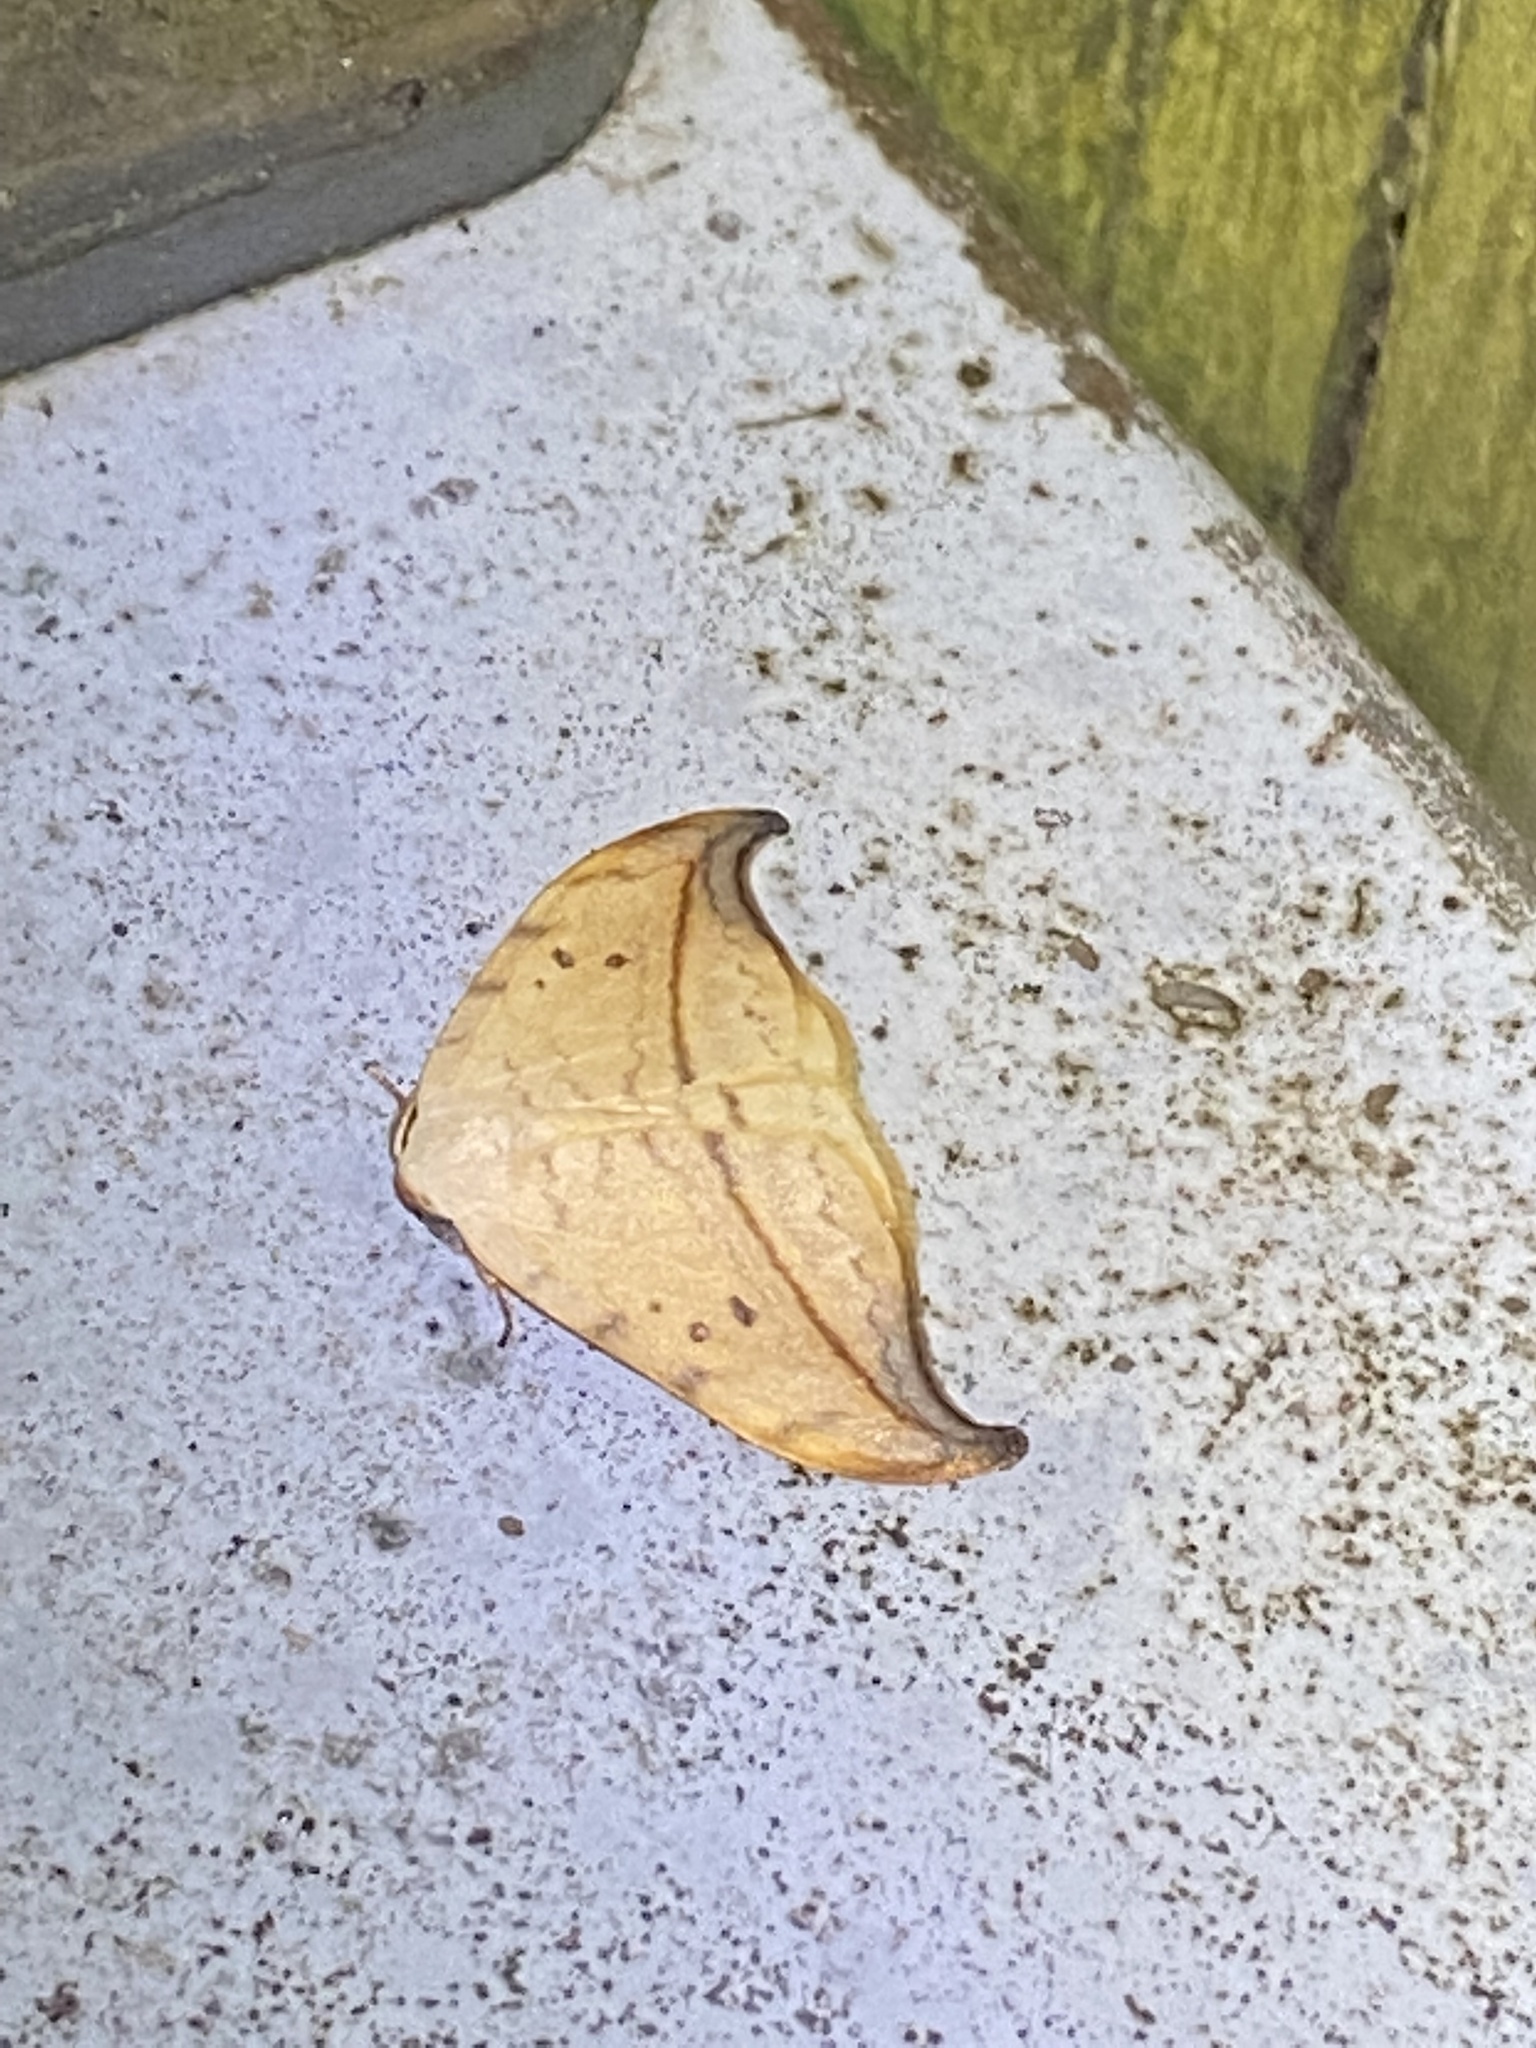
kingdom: Animalia
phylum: Arthropoda
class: Insecta
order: Lepidoptera
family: Drepanidae
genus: Drepana
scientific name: Drepana arcuata
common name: Arched hooktip moth
